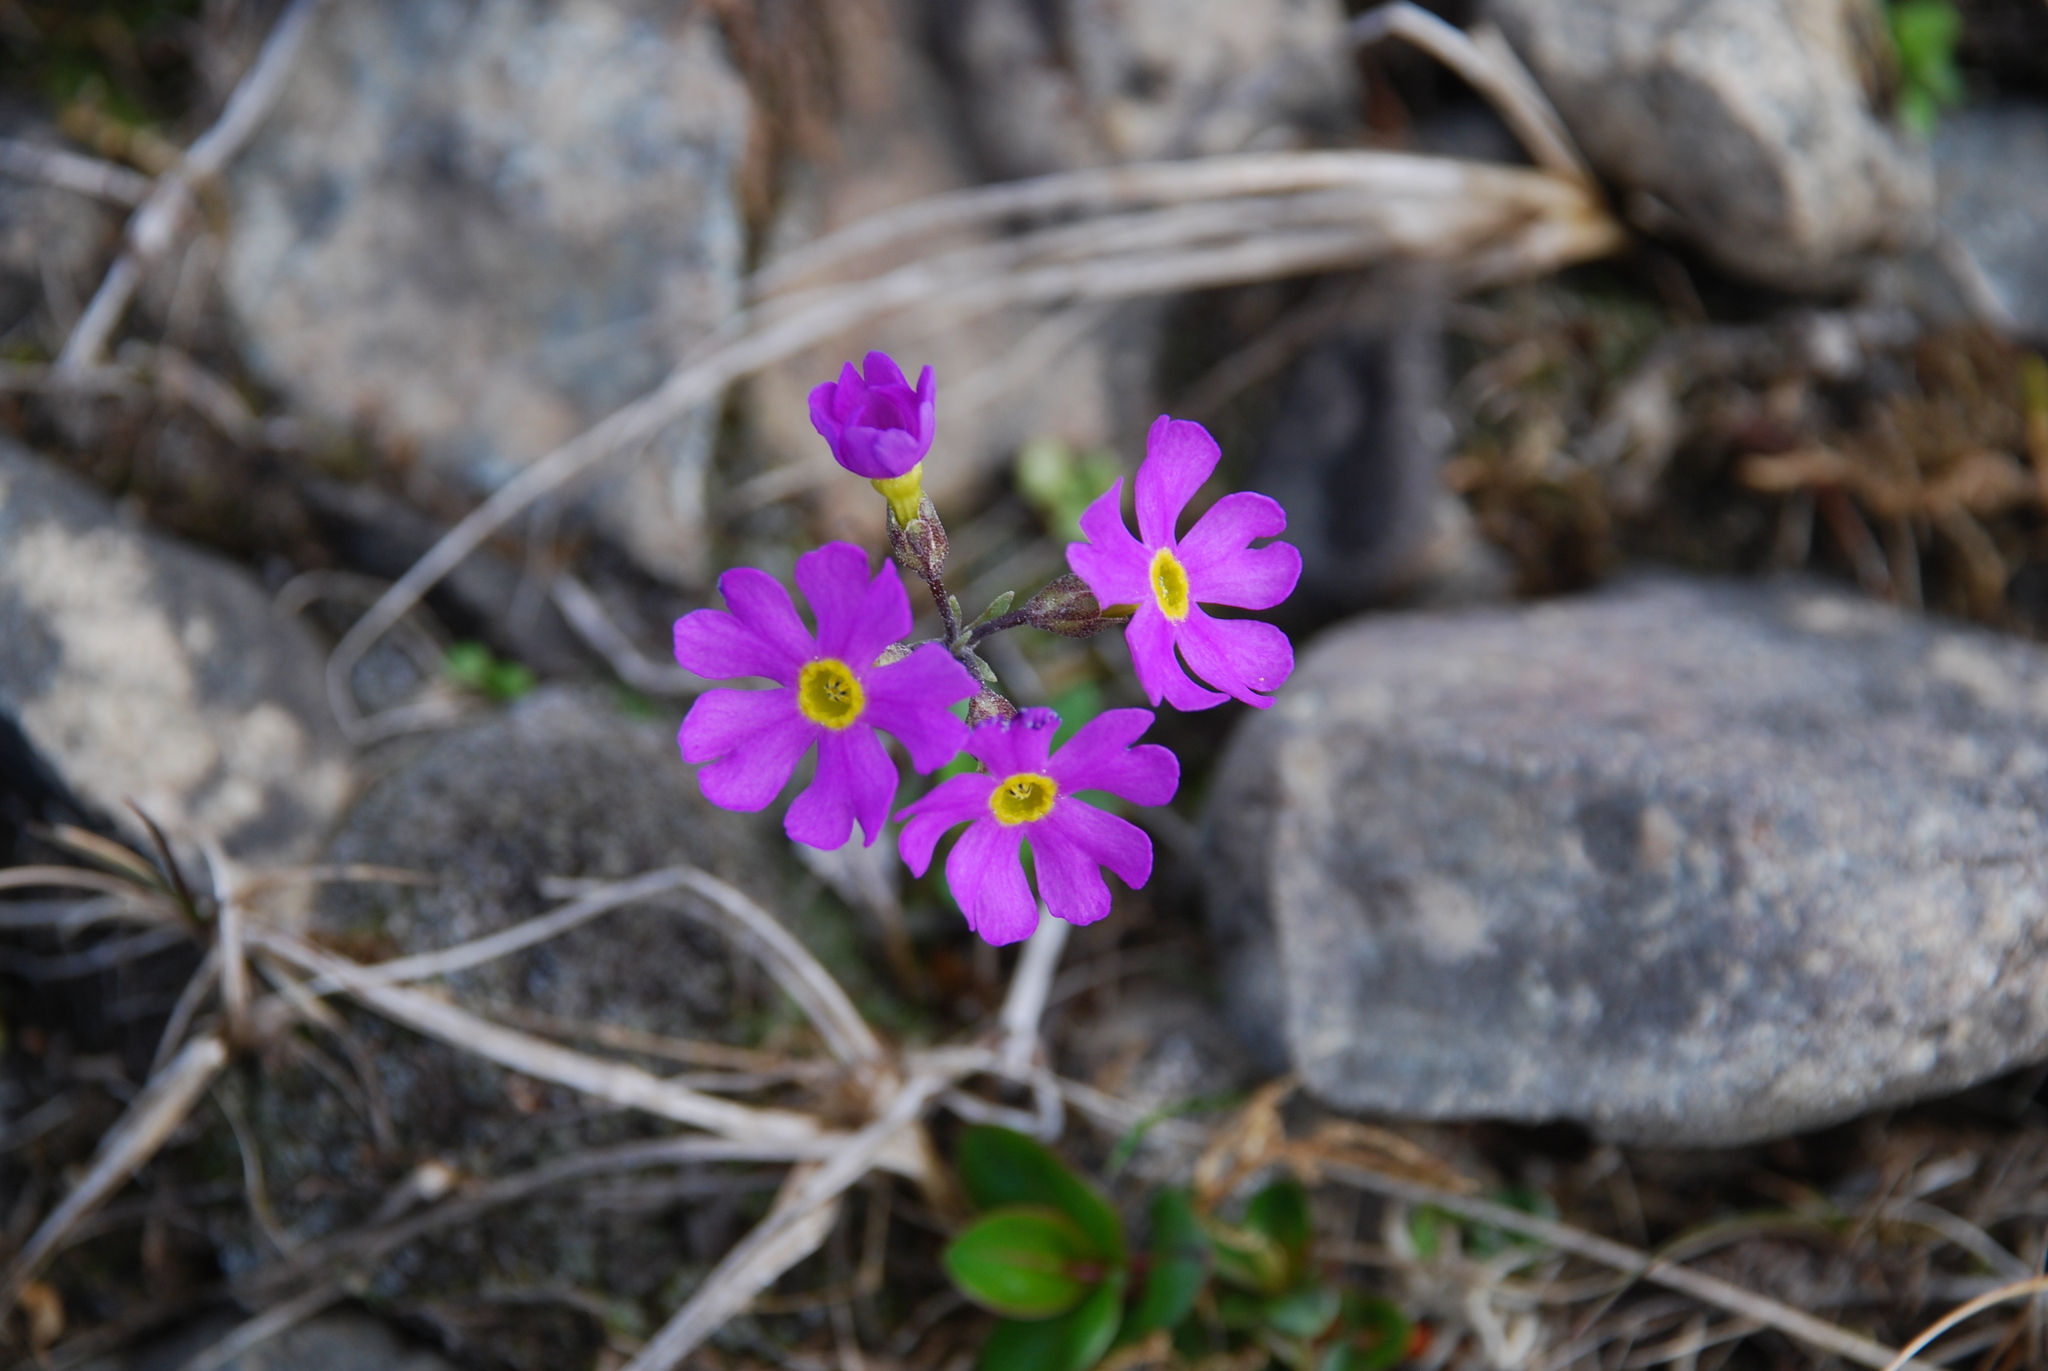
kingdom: Plantae
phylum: Tracheophyta
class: Magnoliopsida
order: Ericales
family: Primulaceae
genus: Primula
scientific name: Primula borealis
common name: Northern primrose
